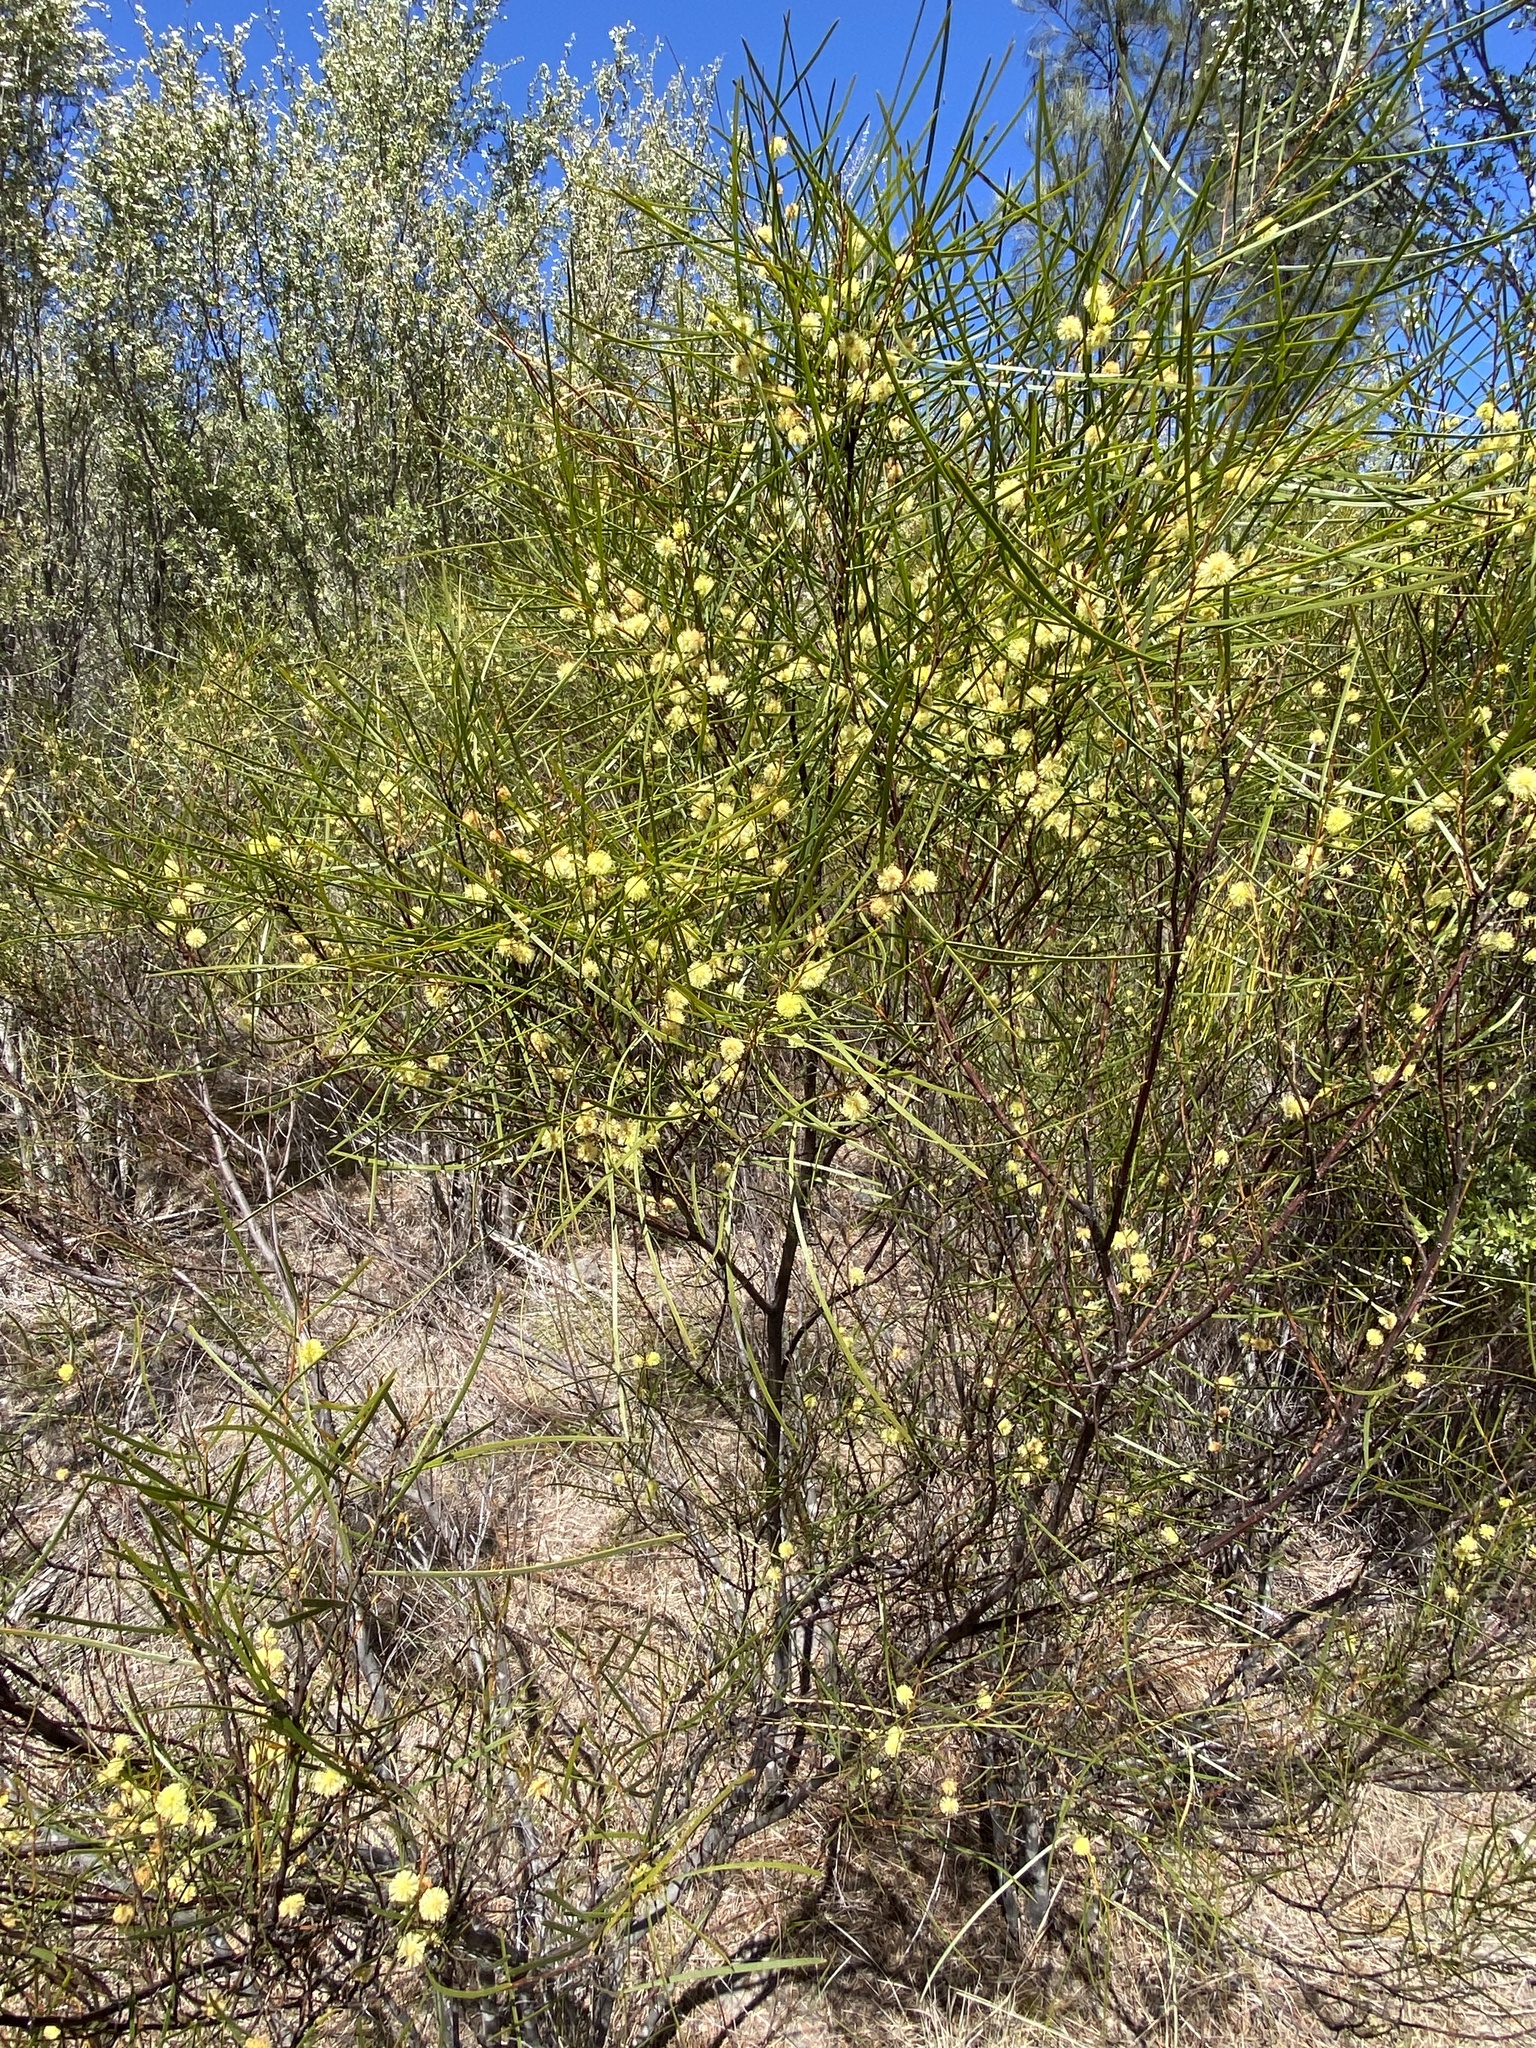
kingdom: Plantae
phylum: Tracheophyta
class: Magnoliopsida
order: Fabales
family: Fabaceae
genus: Acacia
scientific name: Acacia adunca
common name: Wallangarra wattle
